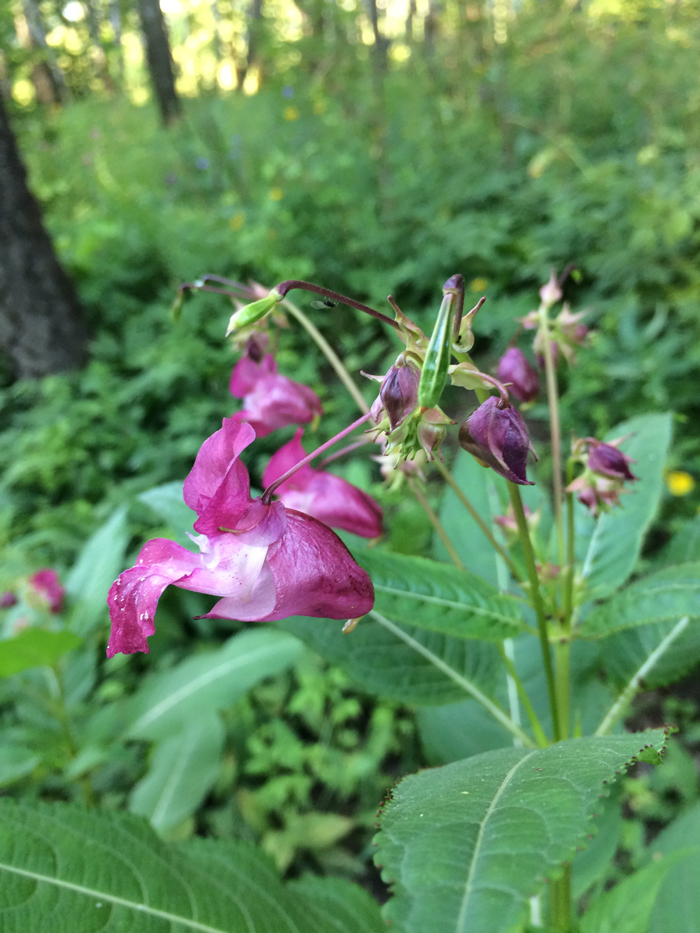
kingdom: Plantae
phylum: Tracheophyta
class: Magnoliopsida
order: Ericales
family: Balsaminaceae
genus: Impatiens
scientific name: Impatiens glandulifera
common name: Himalayan balsam
